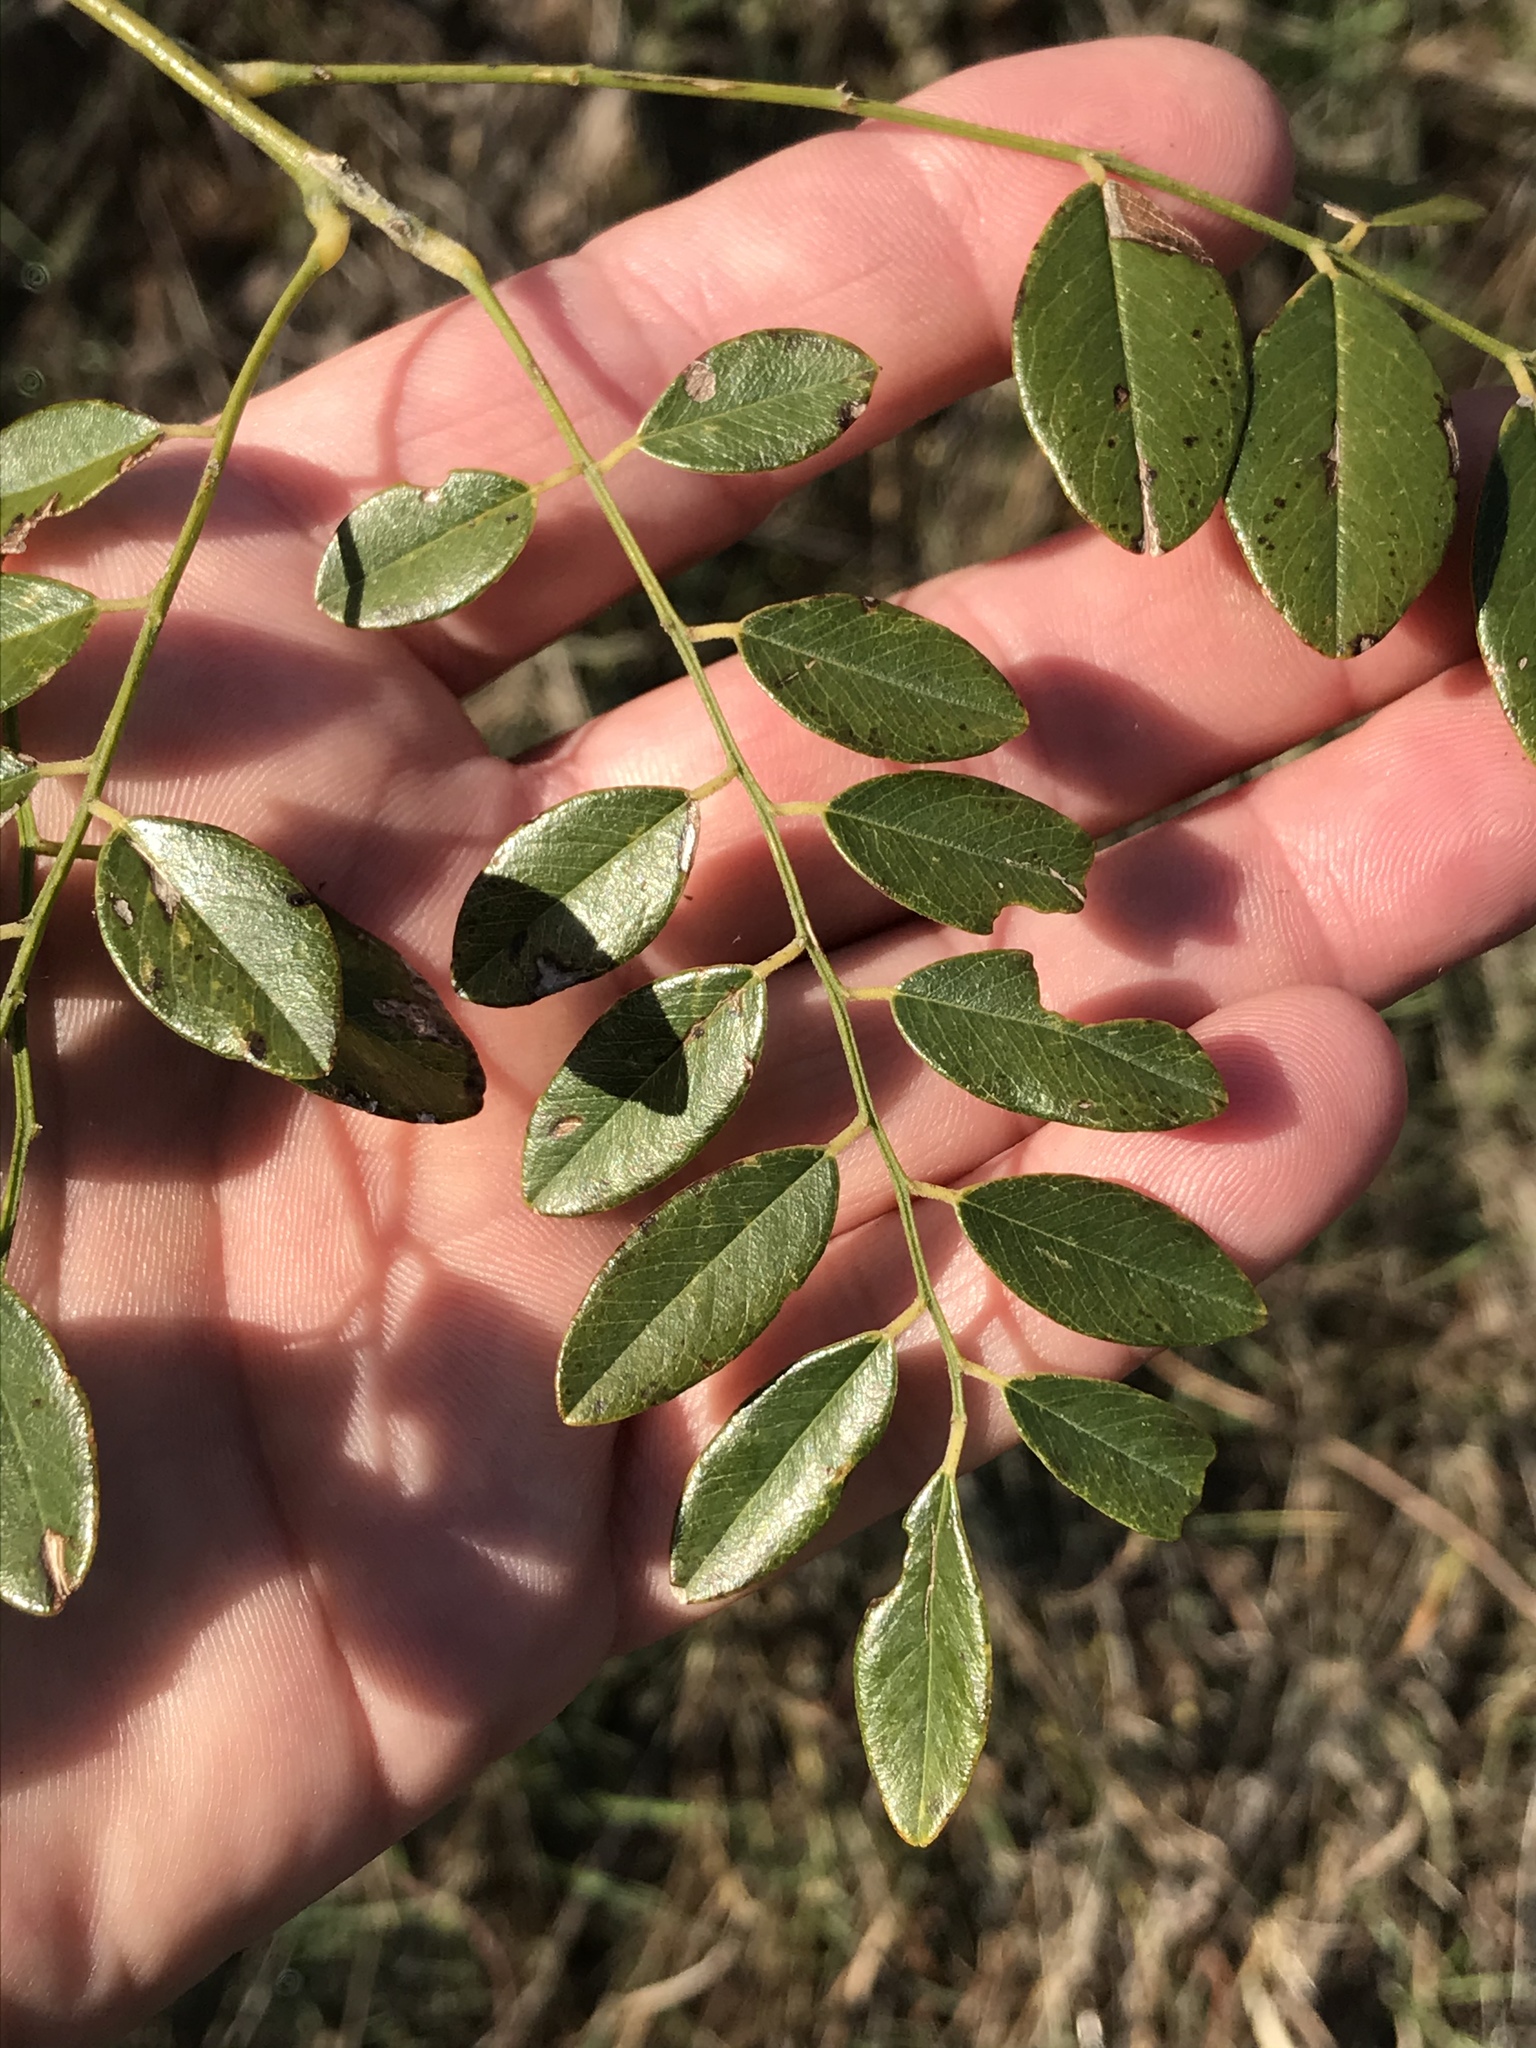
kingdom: Plantae
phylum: Tracheophyta
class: Magnoliopsida
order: Fabales
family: Fabaceae
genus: Styphnolobium
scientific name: Styphnolobium affine
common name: Texas sophora
